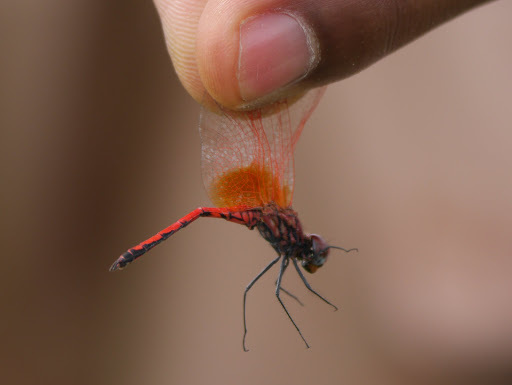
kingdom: Animalia
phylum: Arthropoda
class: Insecta
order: Odonata
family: Libellulidae
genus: Trithemis
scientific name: Trithemis arteriosa
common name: Red-veined dropwing
